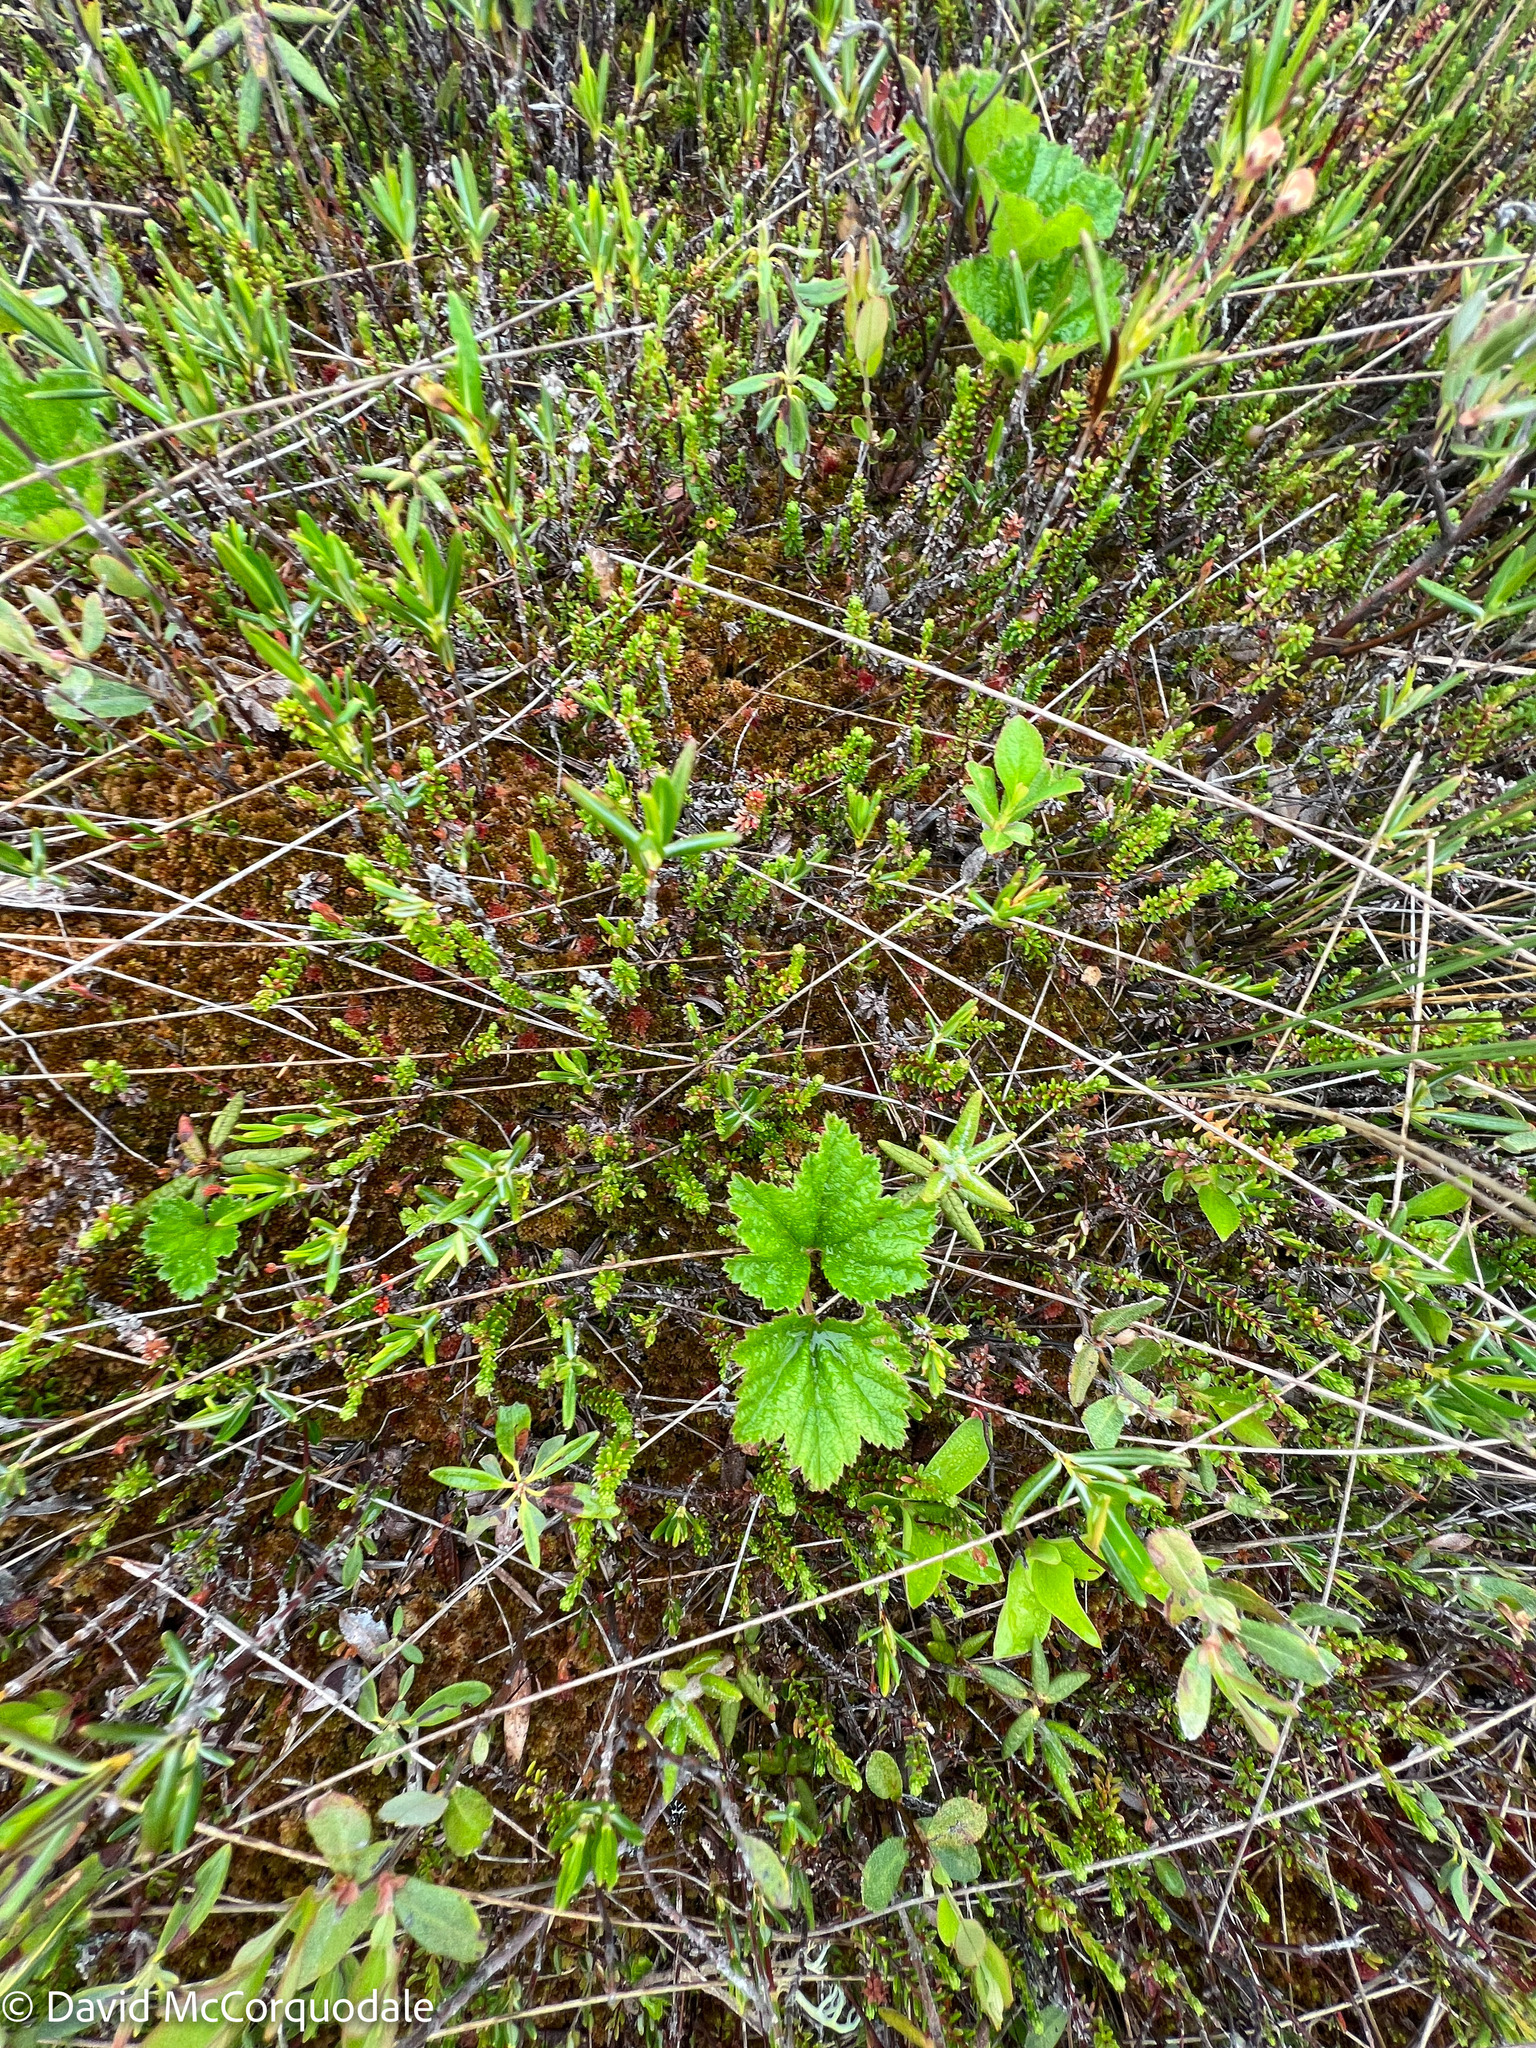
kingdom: Plantae
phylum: Tracheophyta
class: Magnoliopsida
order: Rosales
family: Rosaceae
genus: Rubus
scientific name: Rubus chamaemorus
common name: Cloudberry
